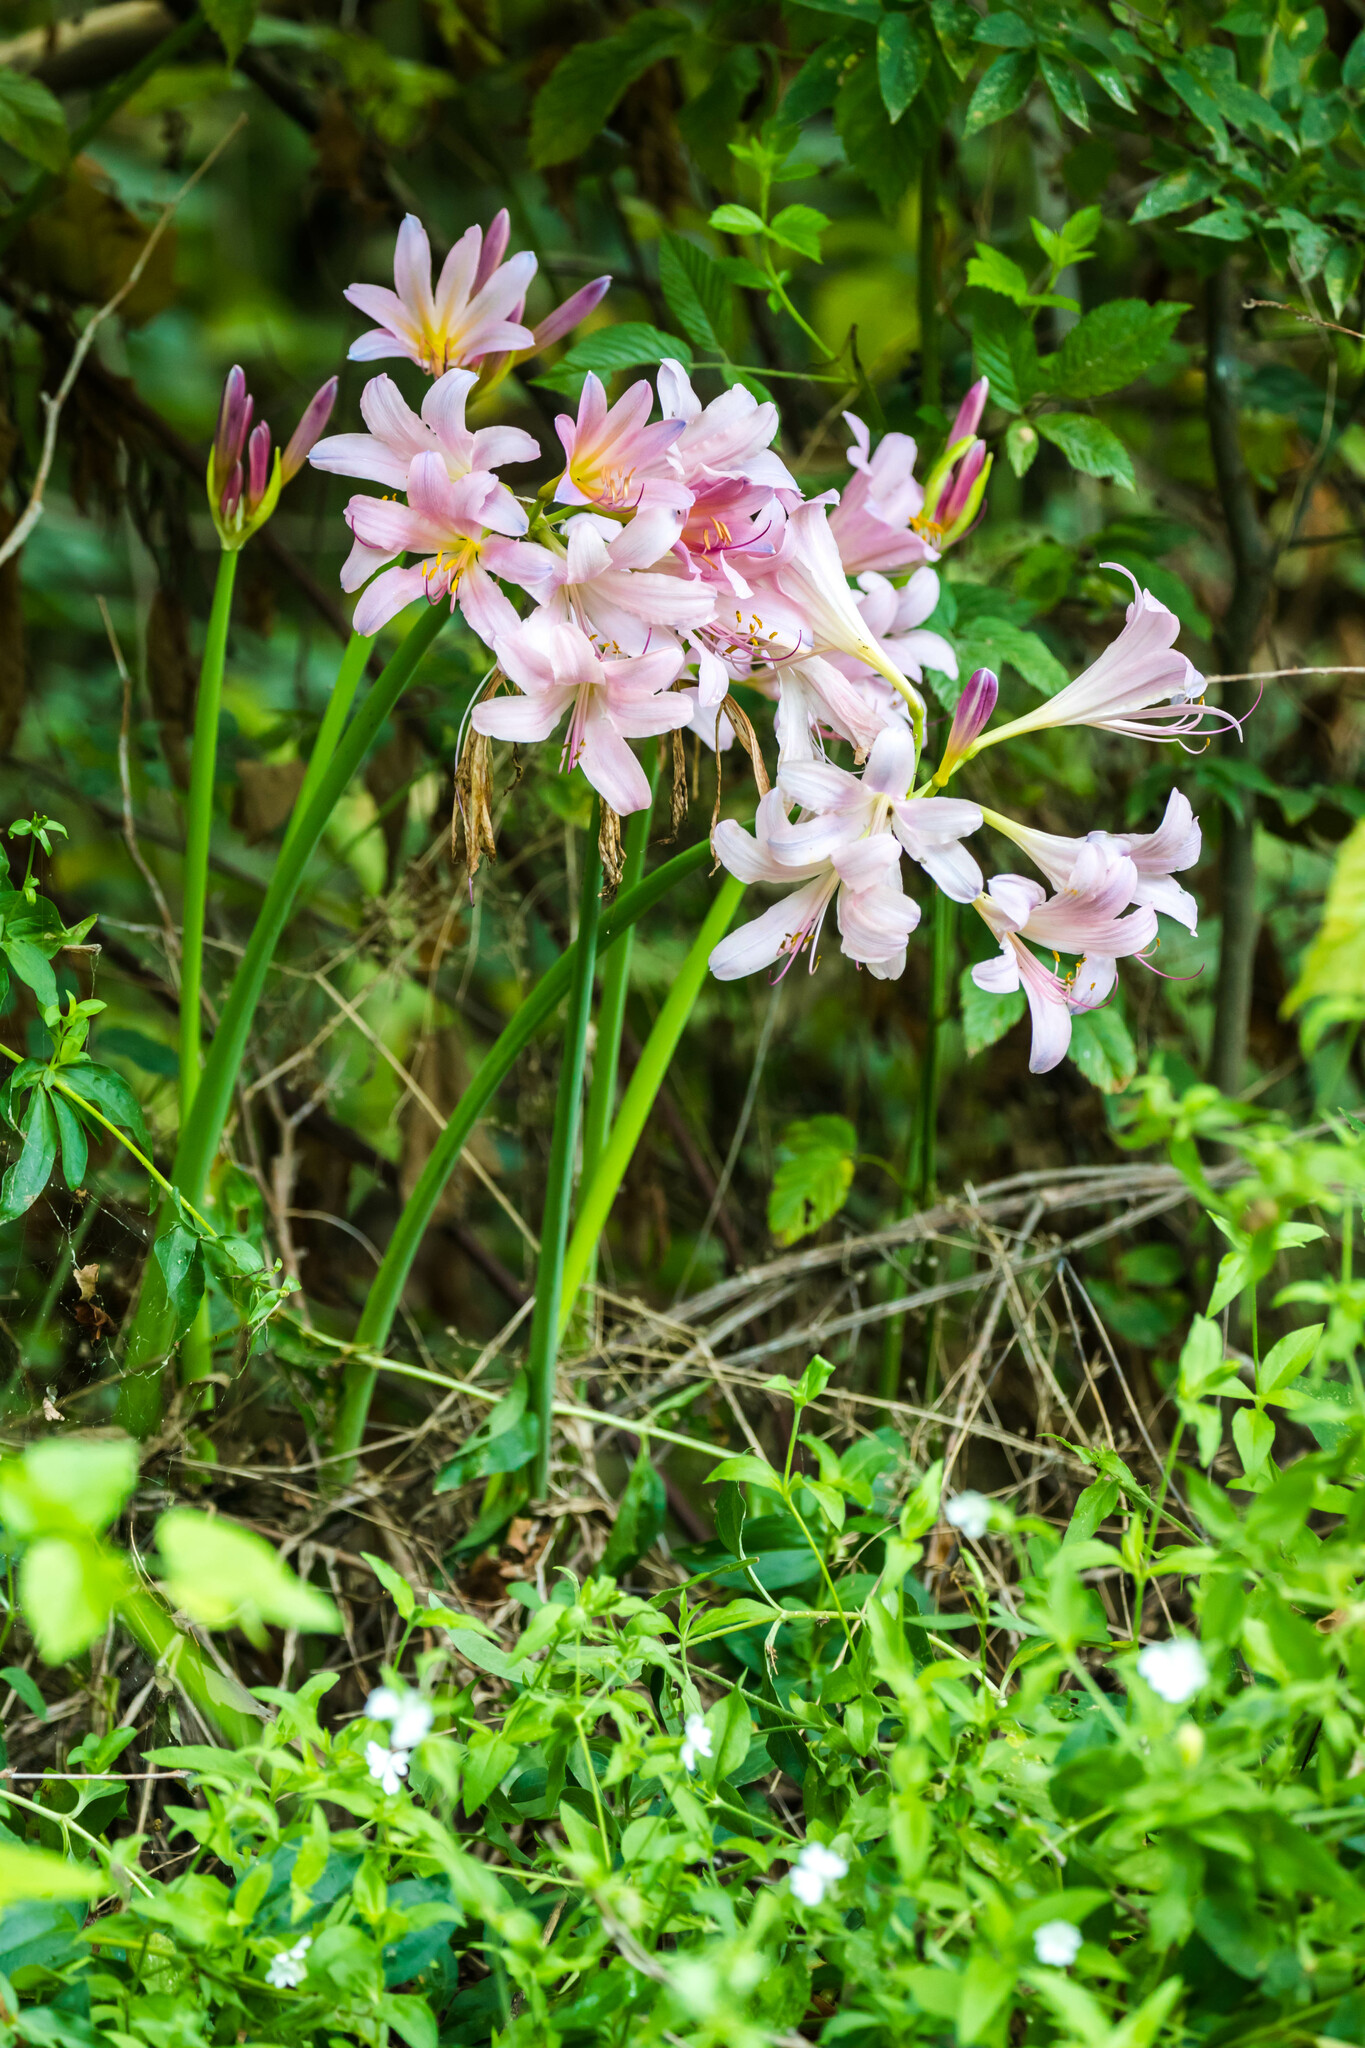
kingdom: Plantae
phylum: Tracheophyta
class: Liliopsida
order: Asparagales
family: Amaryllidaceae
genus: Lycoris
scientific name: Lycoris squamigera
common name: Magic-lily
